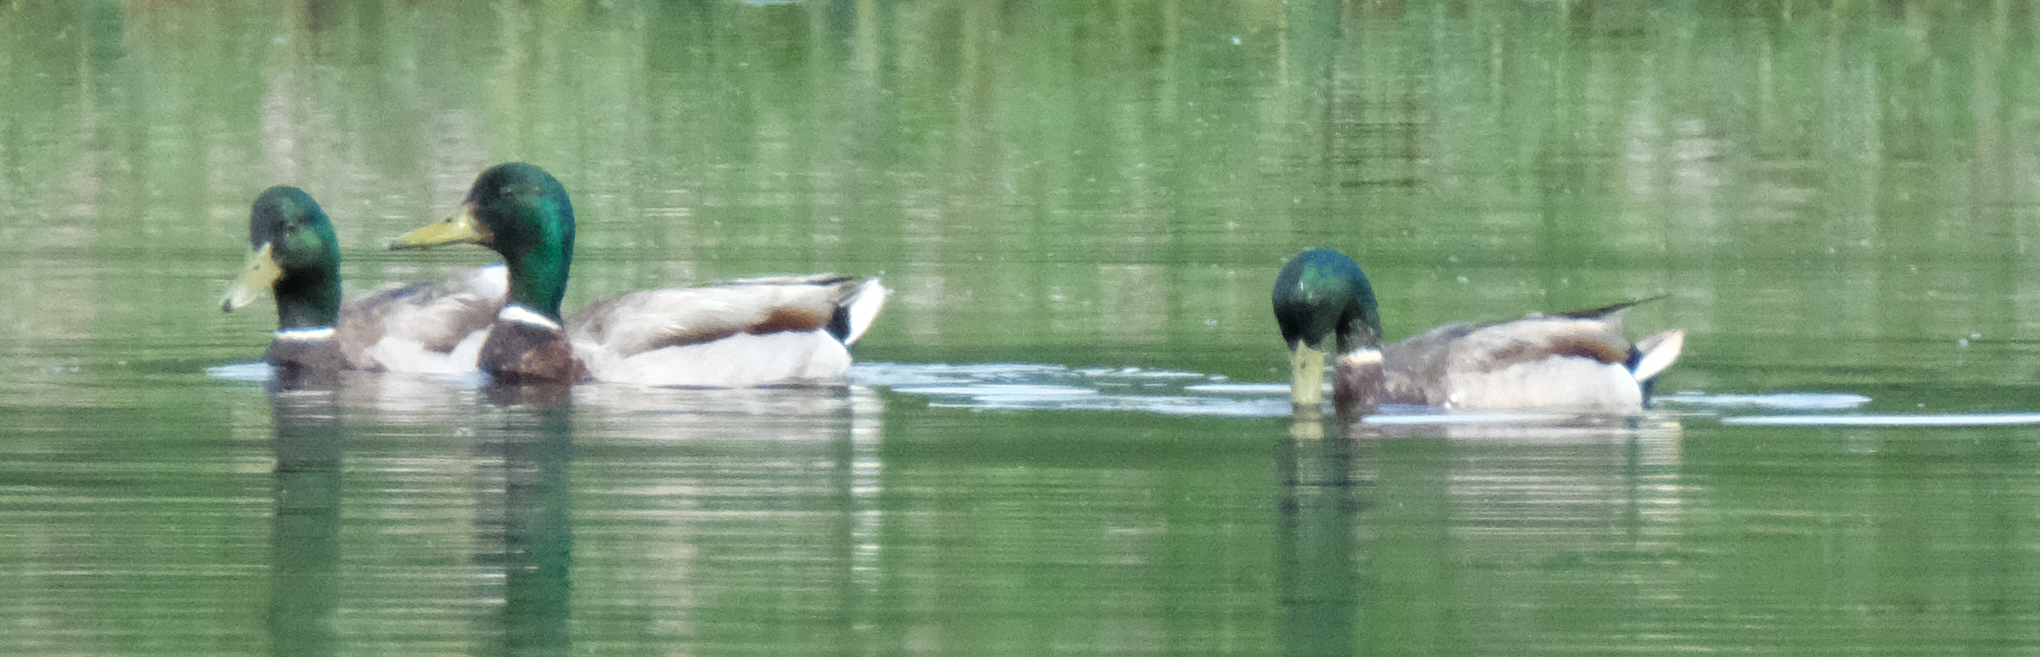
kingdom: Animalia
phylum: Chordata
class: Aves
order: Anseriformes
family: Anatidae
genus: Anas
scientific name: Anas platyrhynchos
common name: Mallard
